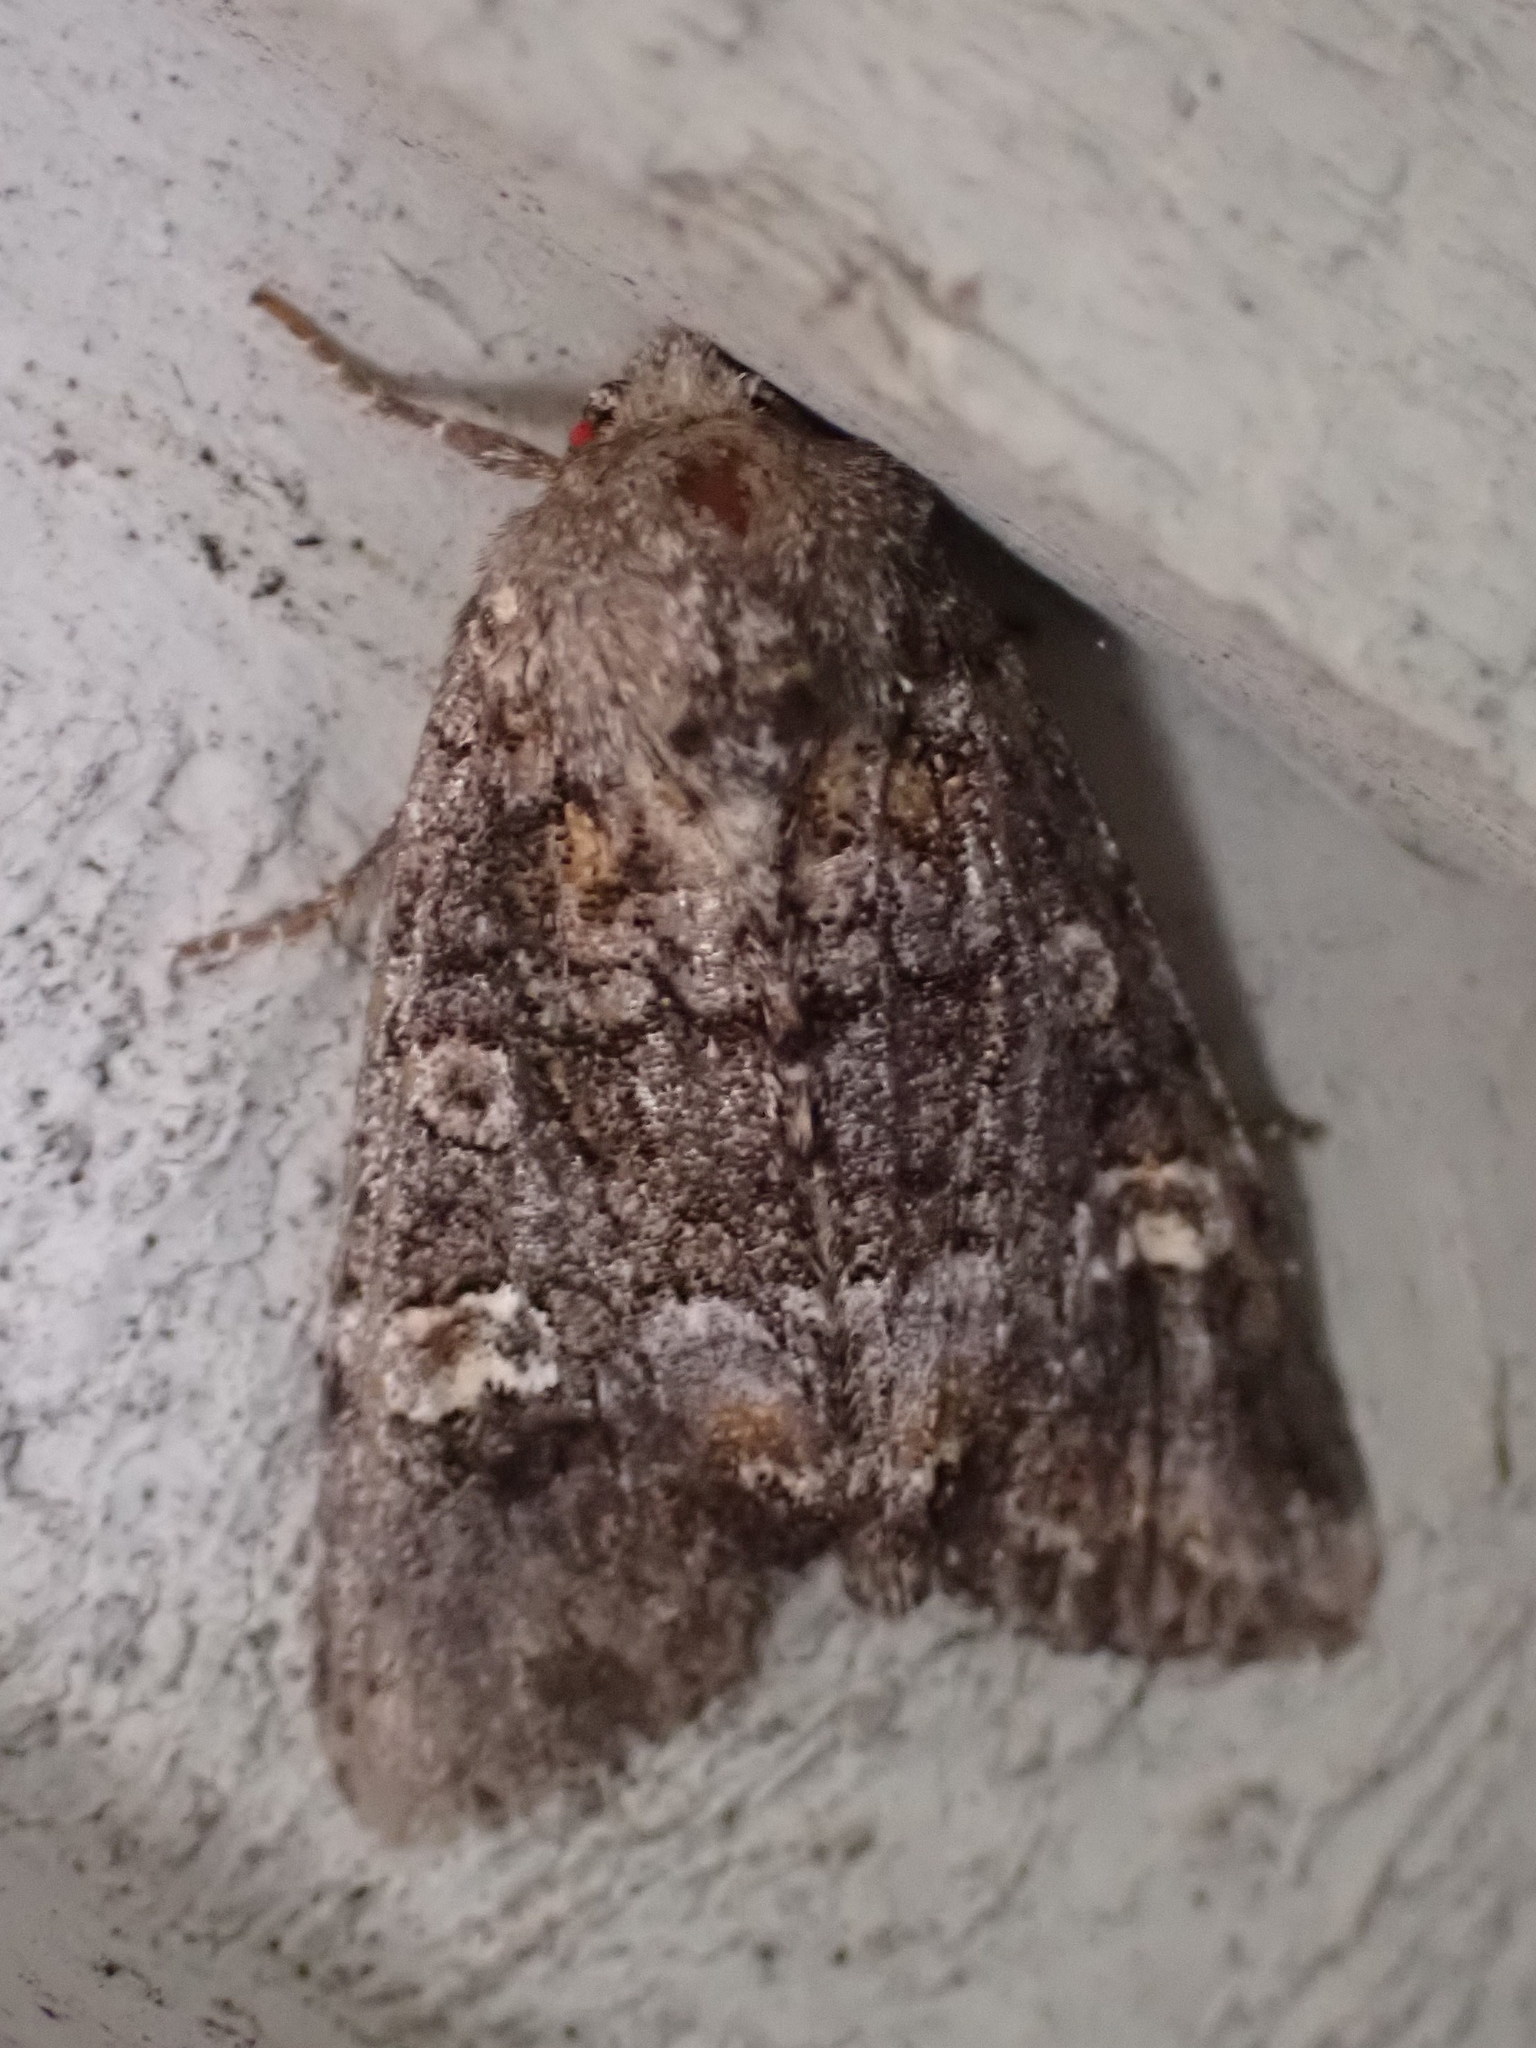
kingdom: Animalia
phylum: Arthropoda
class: Insecta
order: Lepidoptera
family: Noctuidae
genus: Spiramater
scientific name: Spiramater lutra
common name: Otter spiramater moth
